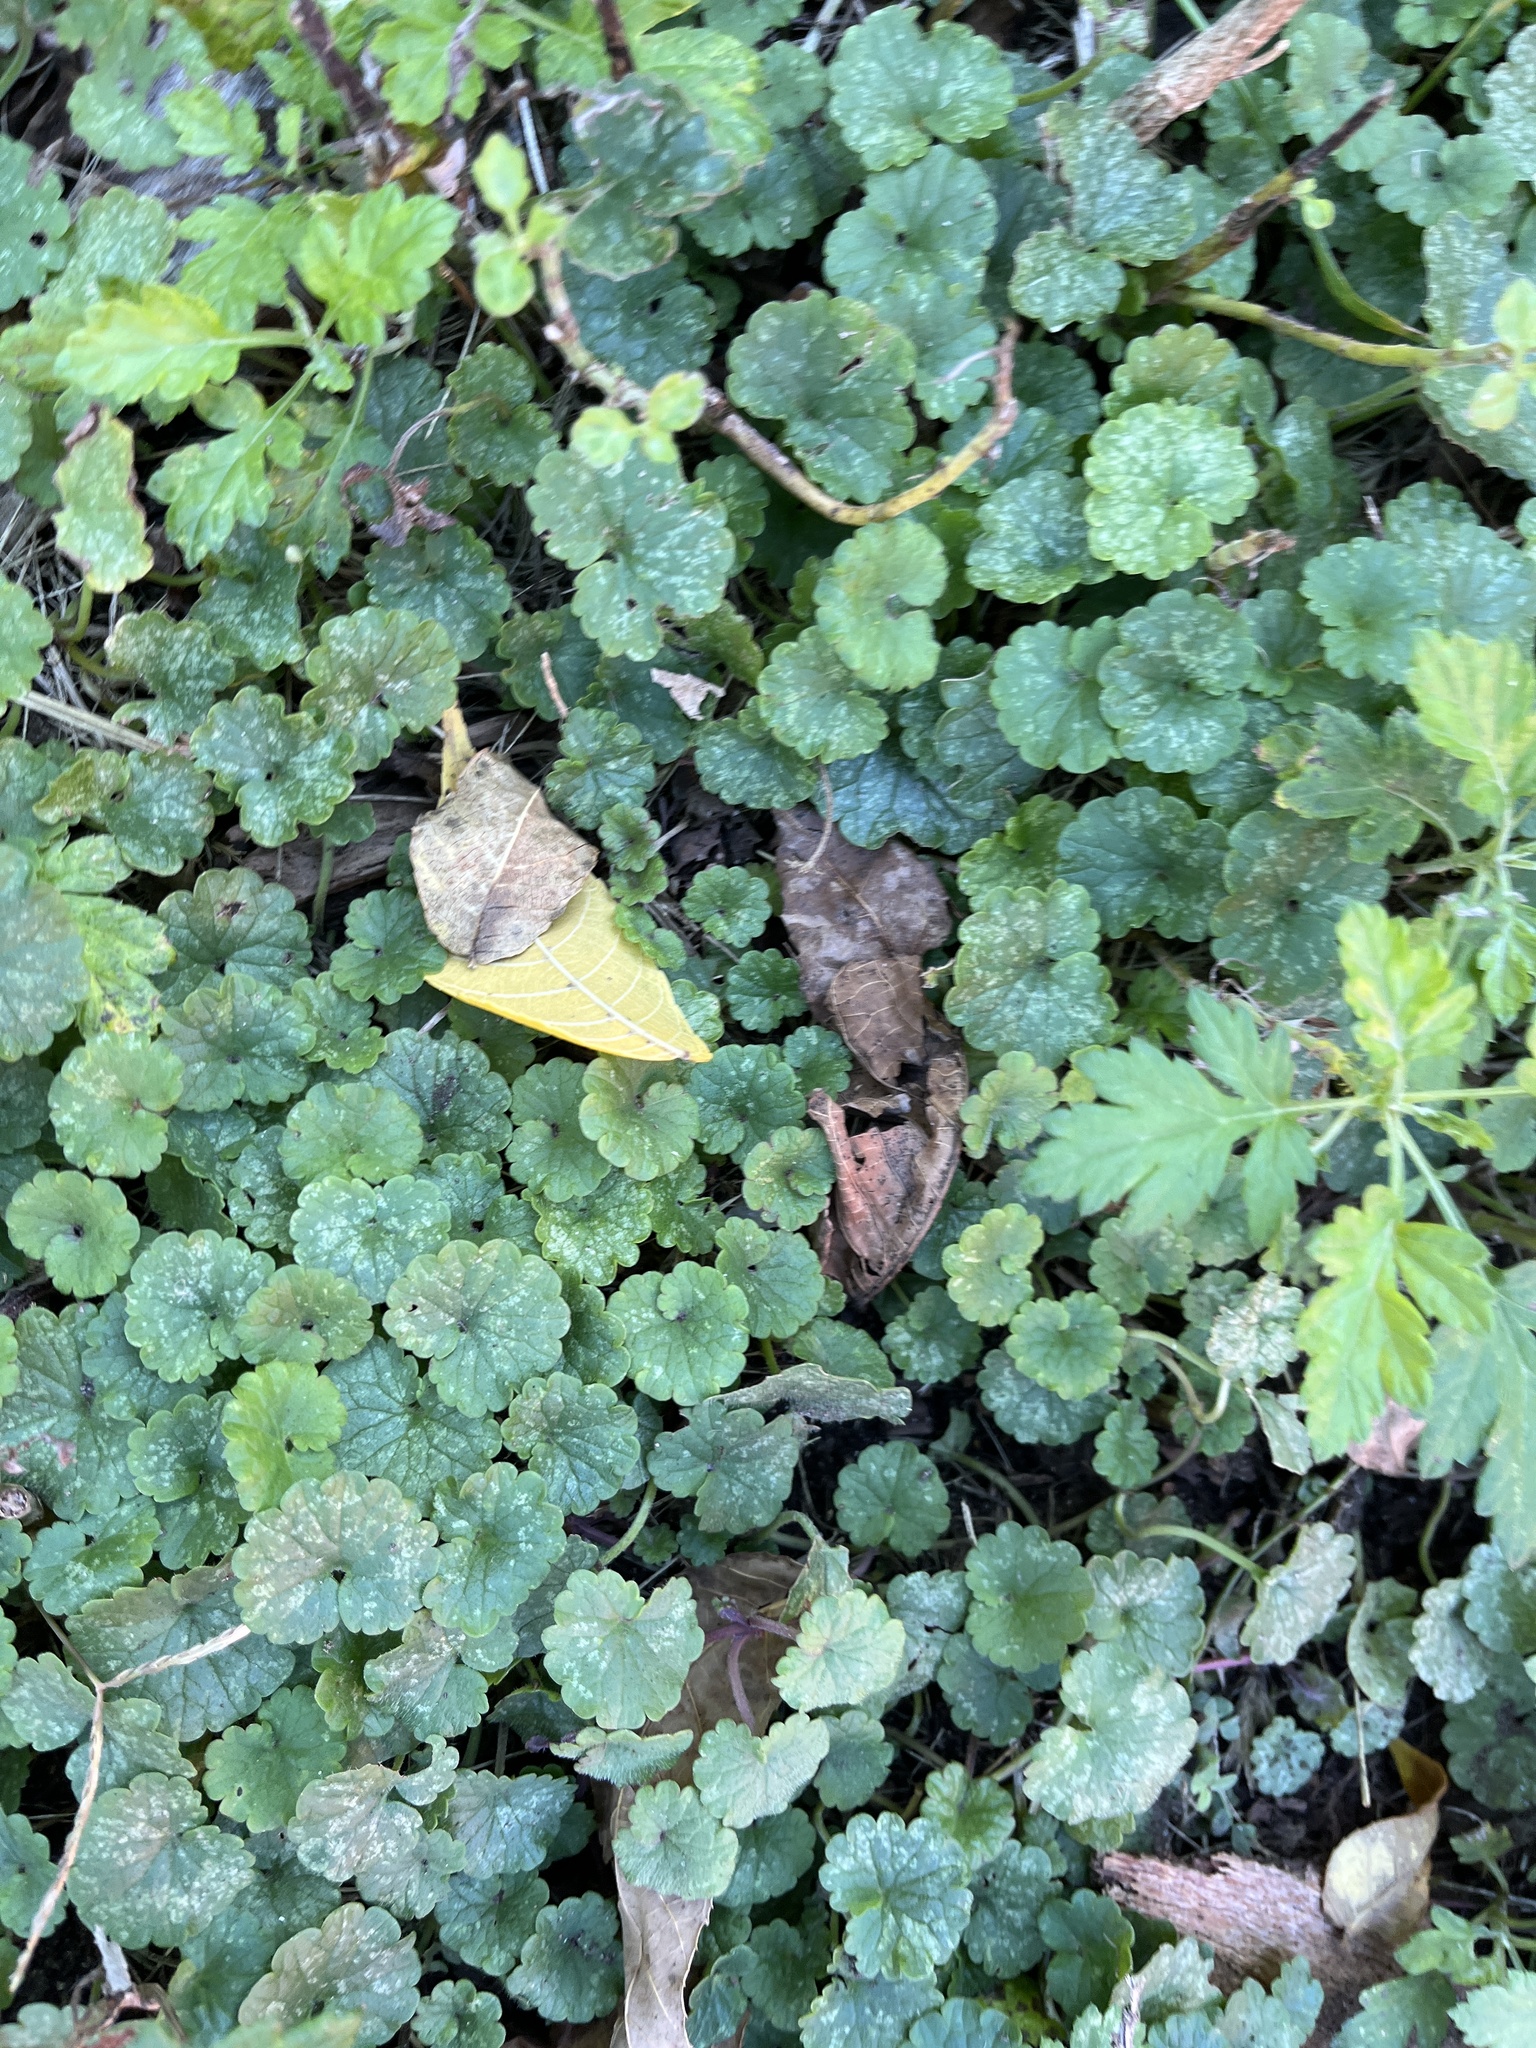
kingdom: Plantae
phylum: Tracheophyta
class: Magnoliopsida
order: Lamiales
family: Lamiaceae
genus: Glechoma
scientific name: Glechoma hederacea
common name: Ground ivy
